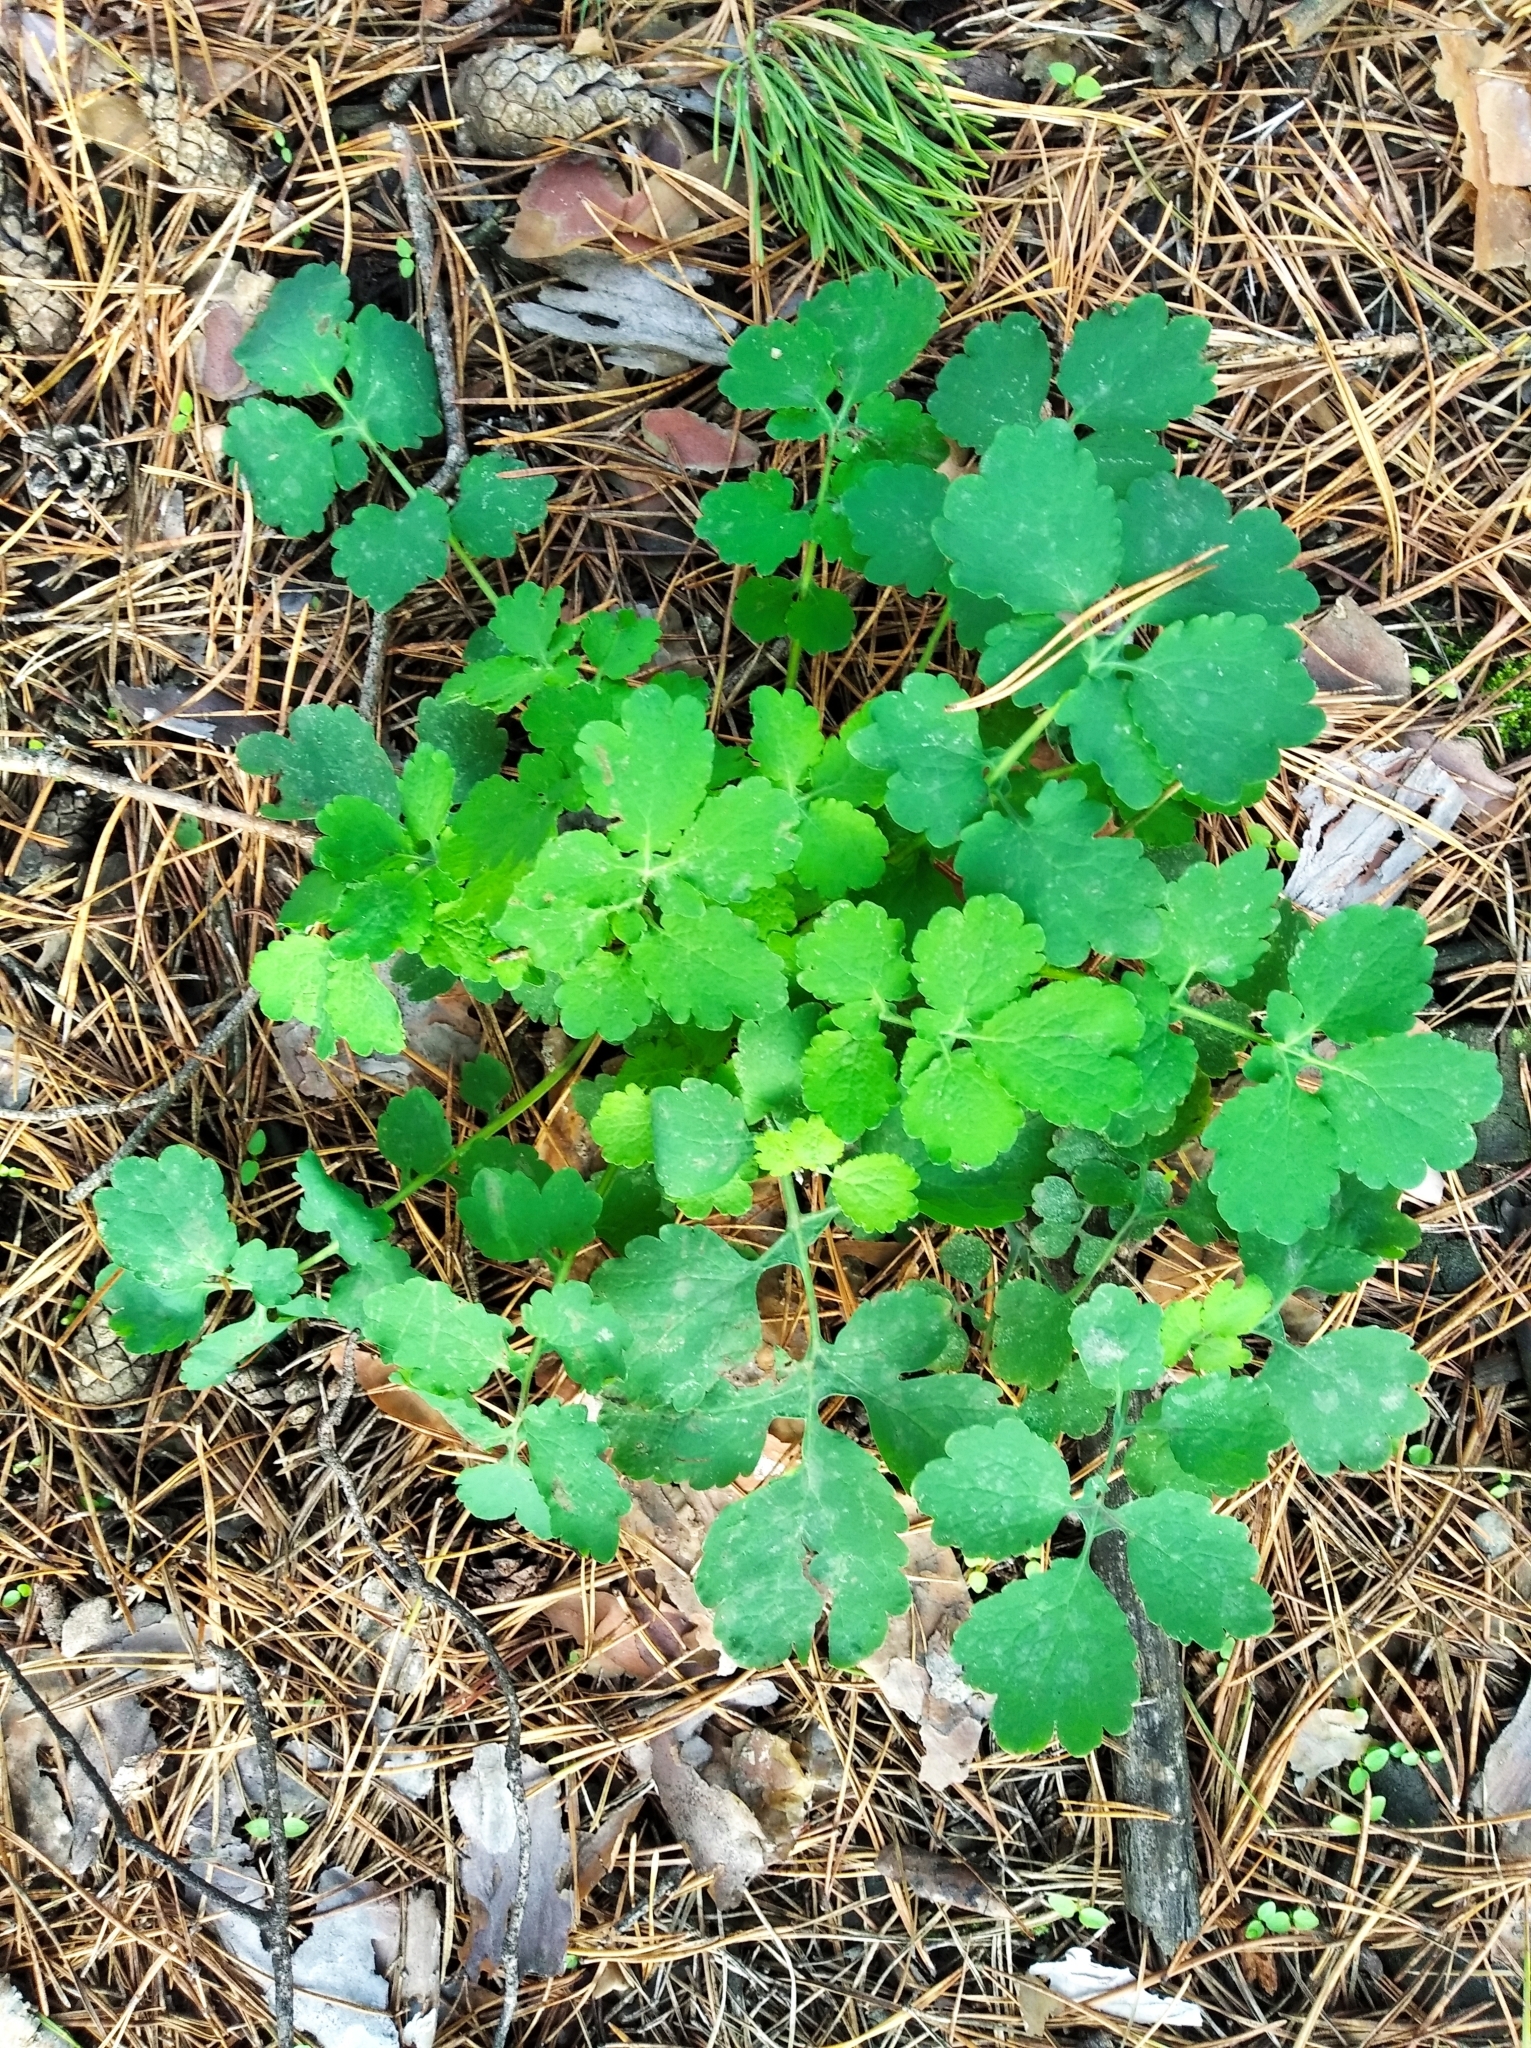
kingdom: Plantae
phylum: Tracheophyta
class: Magnoliopsida
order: Ranunculales
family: Papaveraceae
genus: Chelidonium
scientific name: Chelidonium majus
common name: Greater celandine
